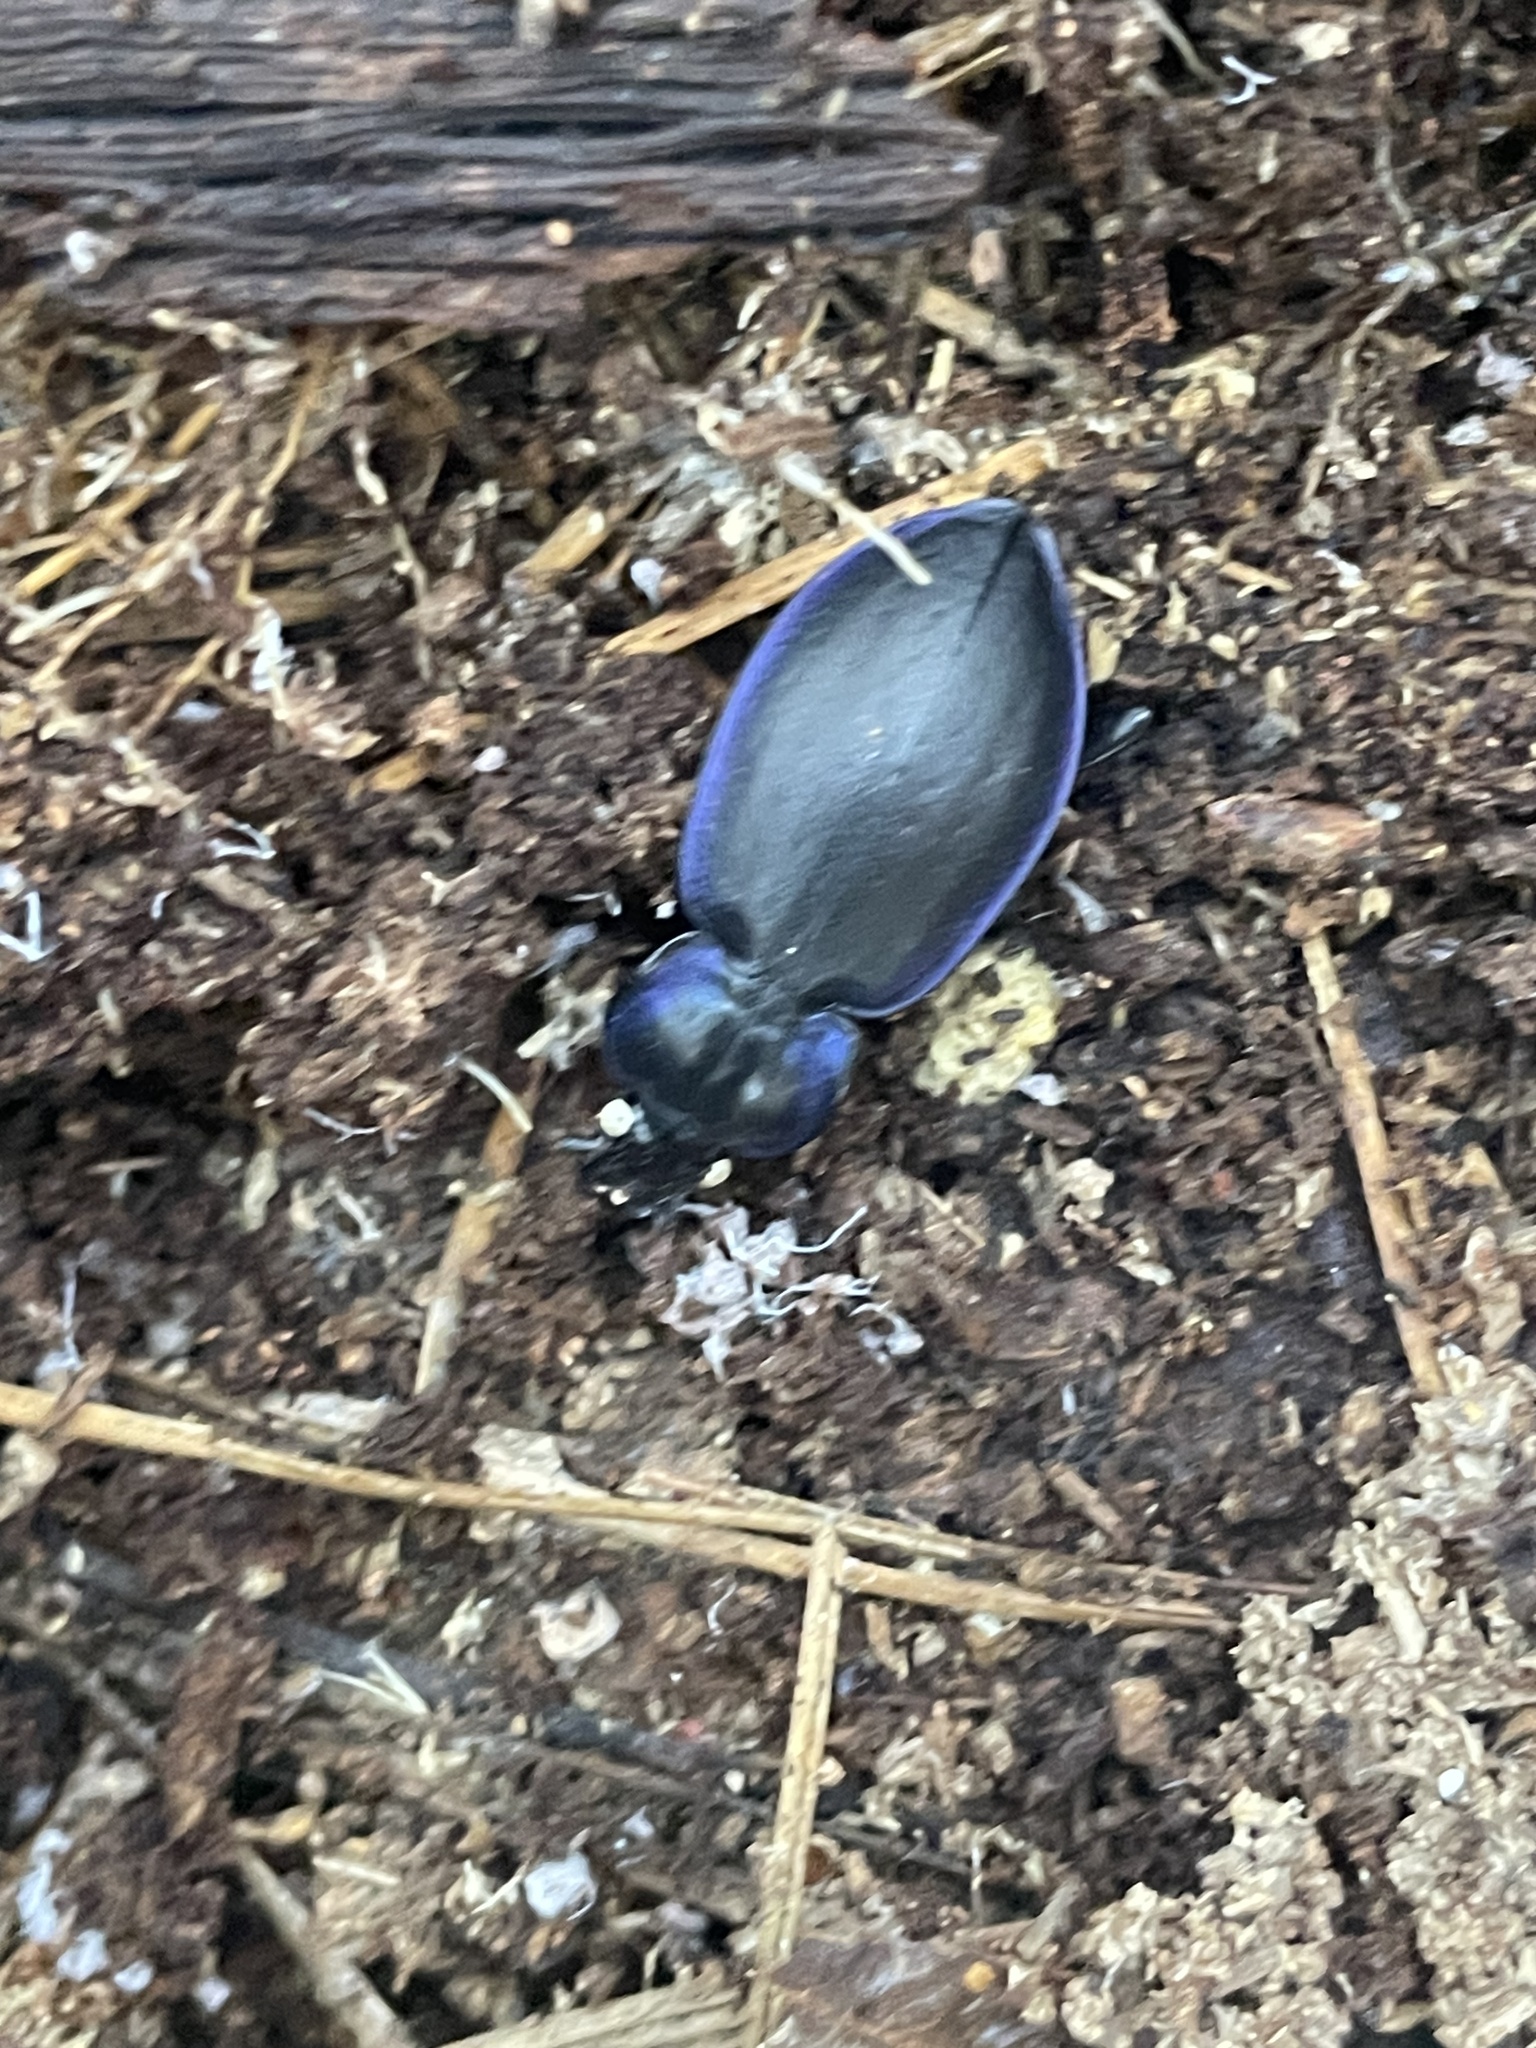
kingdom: Animalia
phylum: Arthropoda
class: Insecta
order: Coleoptera
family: Carabidae
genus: Carabus
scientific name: Carabus sylvosus
